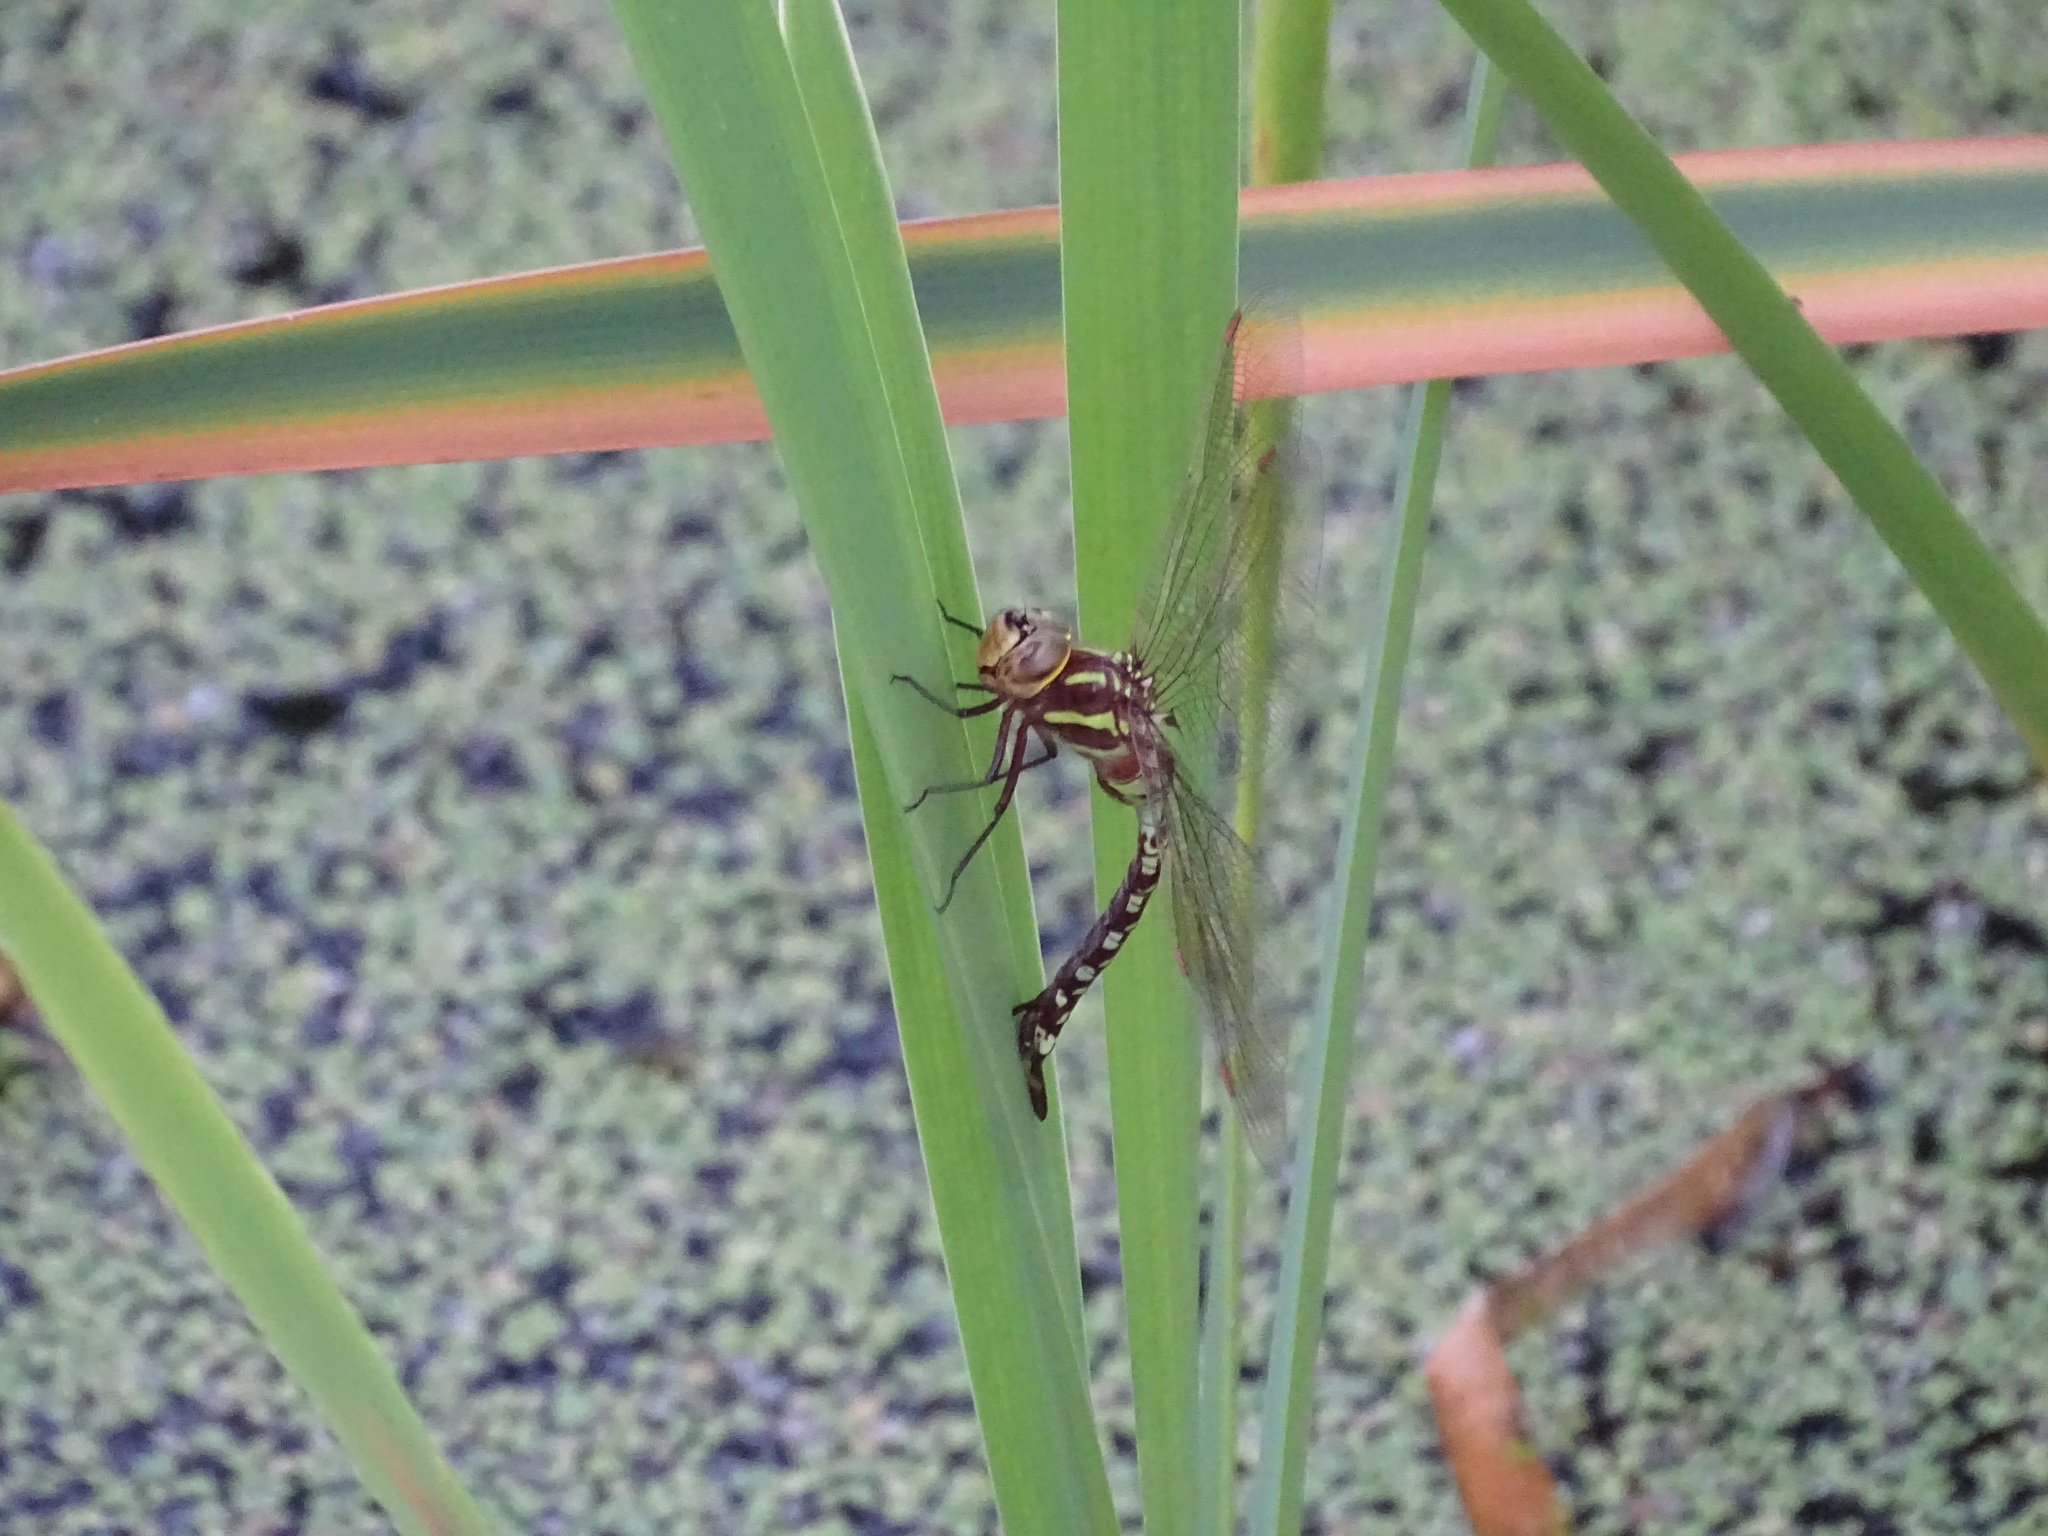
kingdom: Animalia
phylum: Arthropoda
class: Insecta
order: Odonata
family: Aeshnidae
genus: Aeshna
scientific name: Aeshna constricta
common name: Lance-tipped darner
